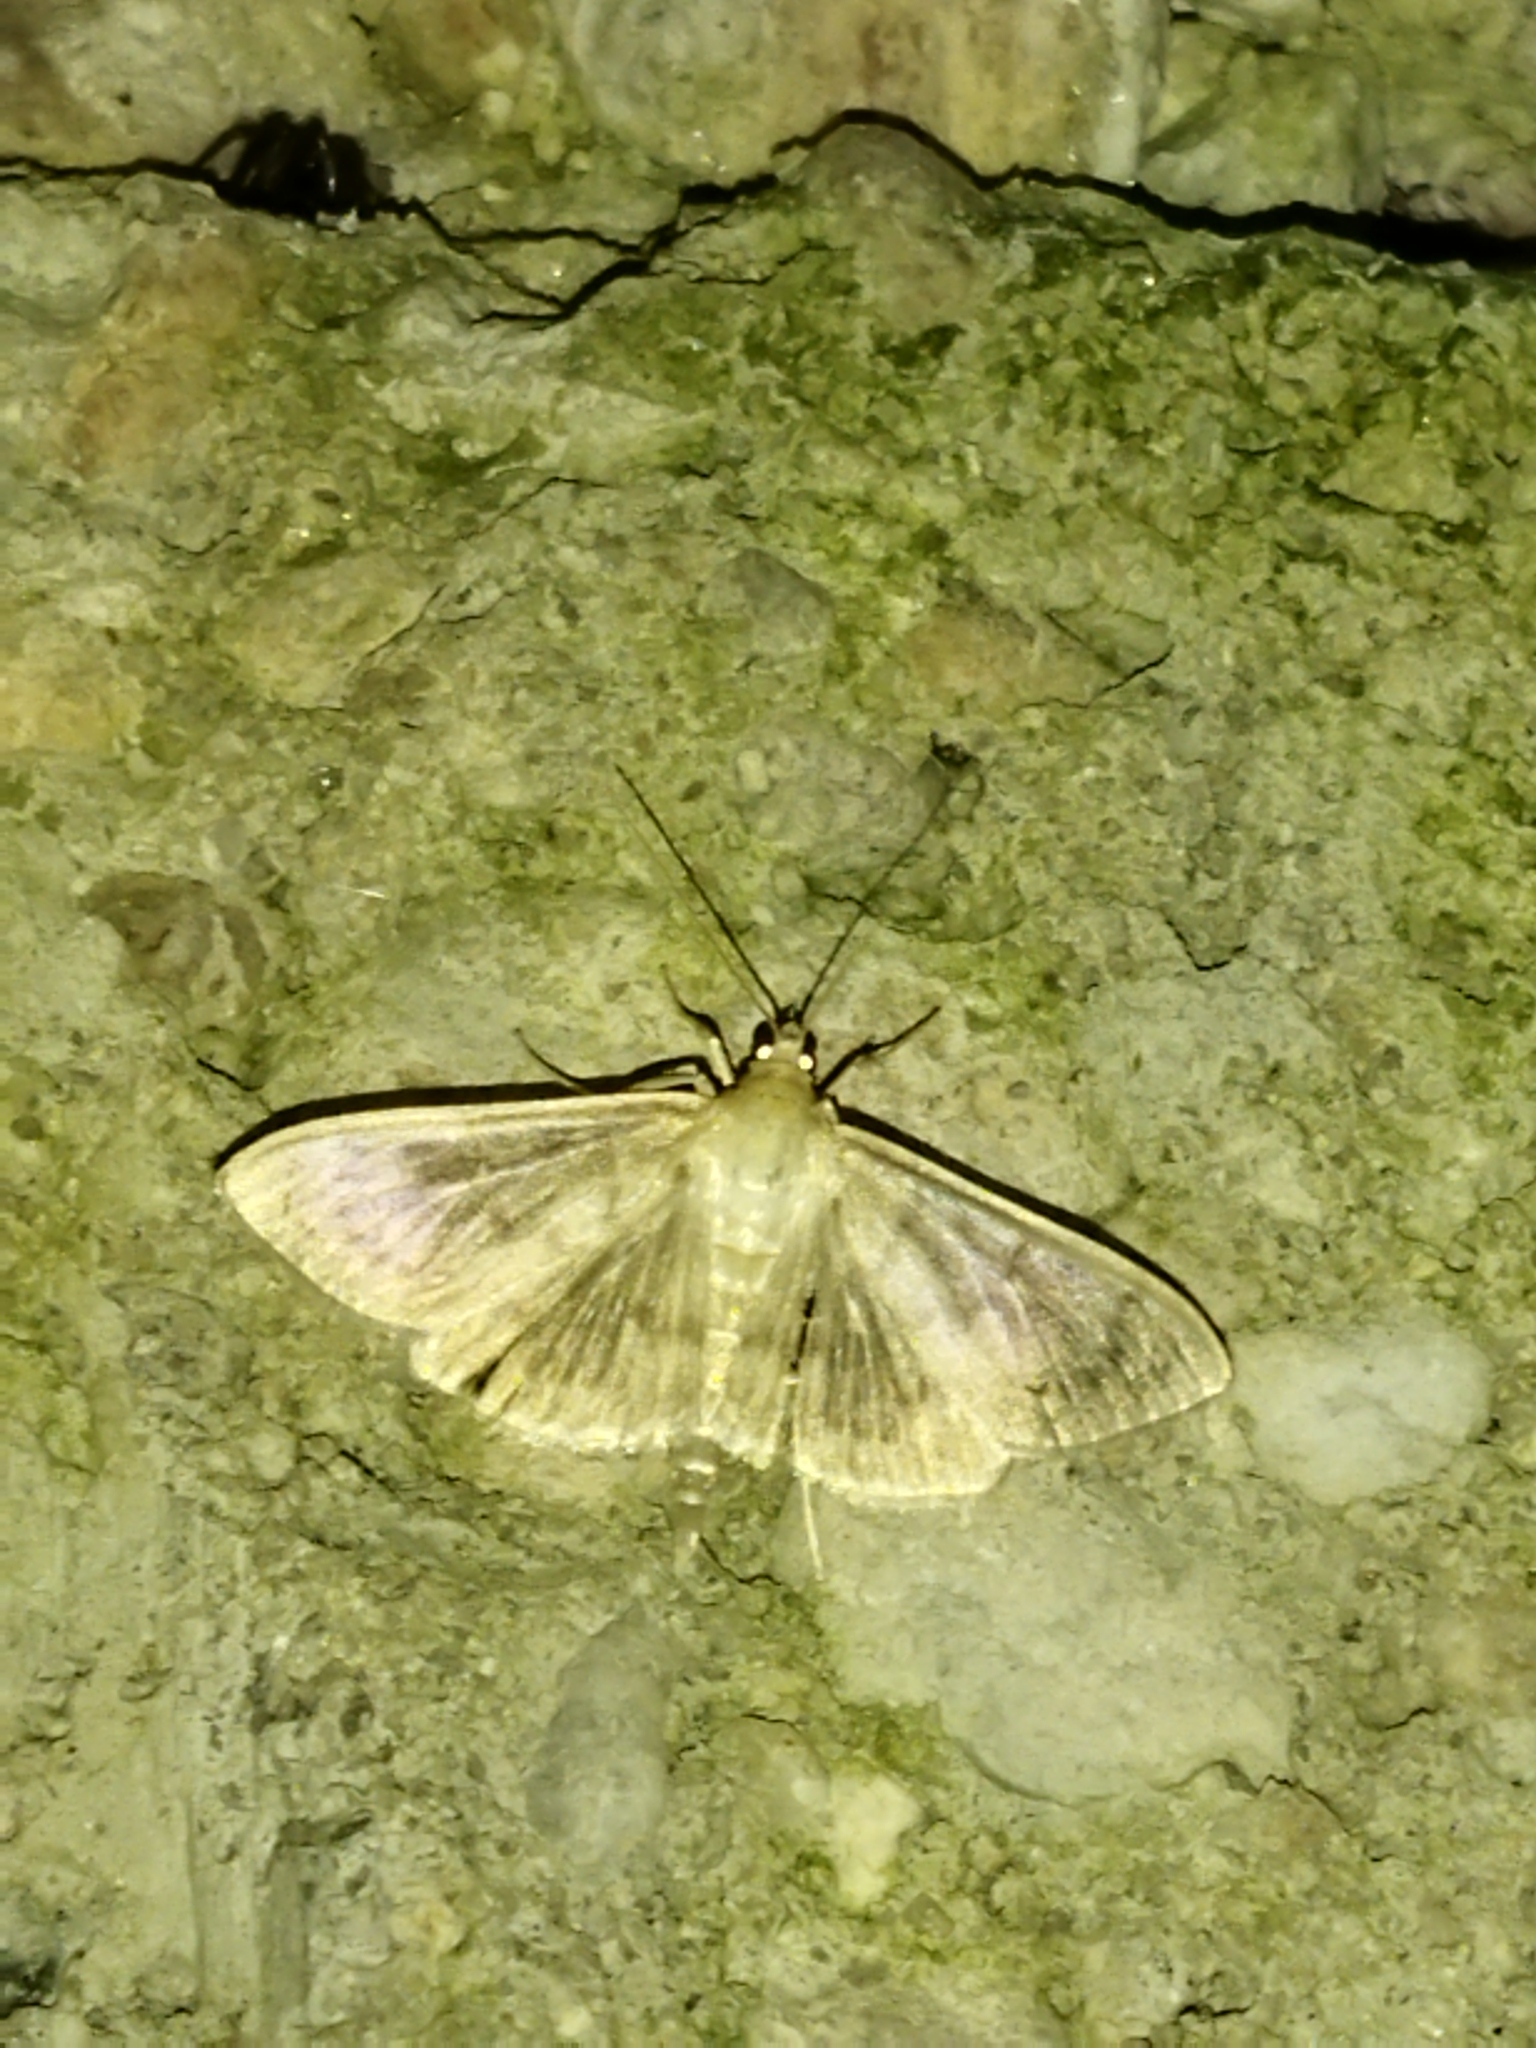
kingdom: Animalia
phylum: Arthropoda
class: Insecta
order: Lepidoptera
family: Crambidae
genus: Patania
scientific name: Patania ruralis
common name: Mother of pearl
